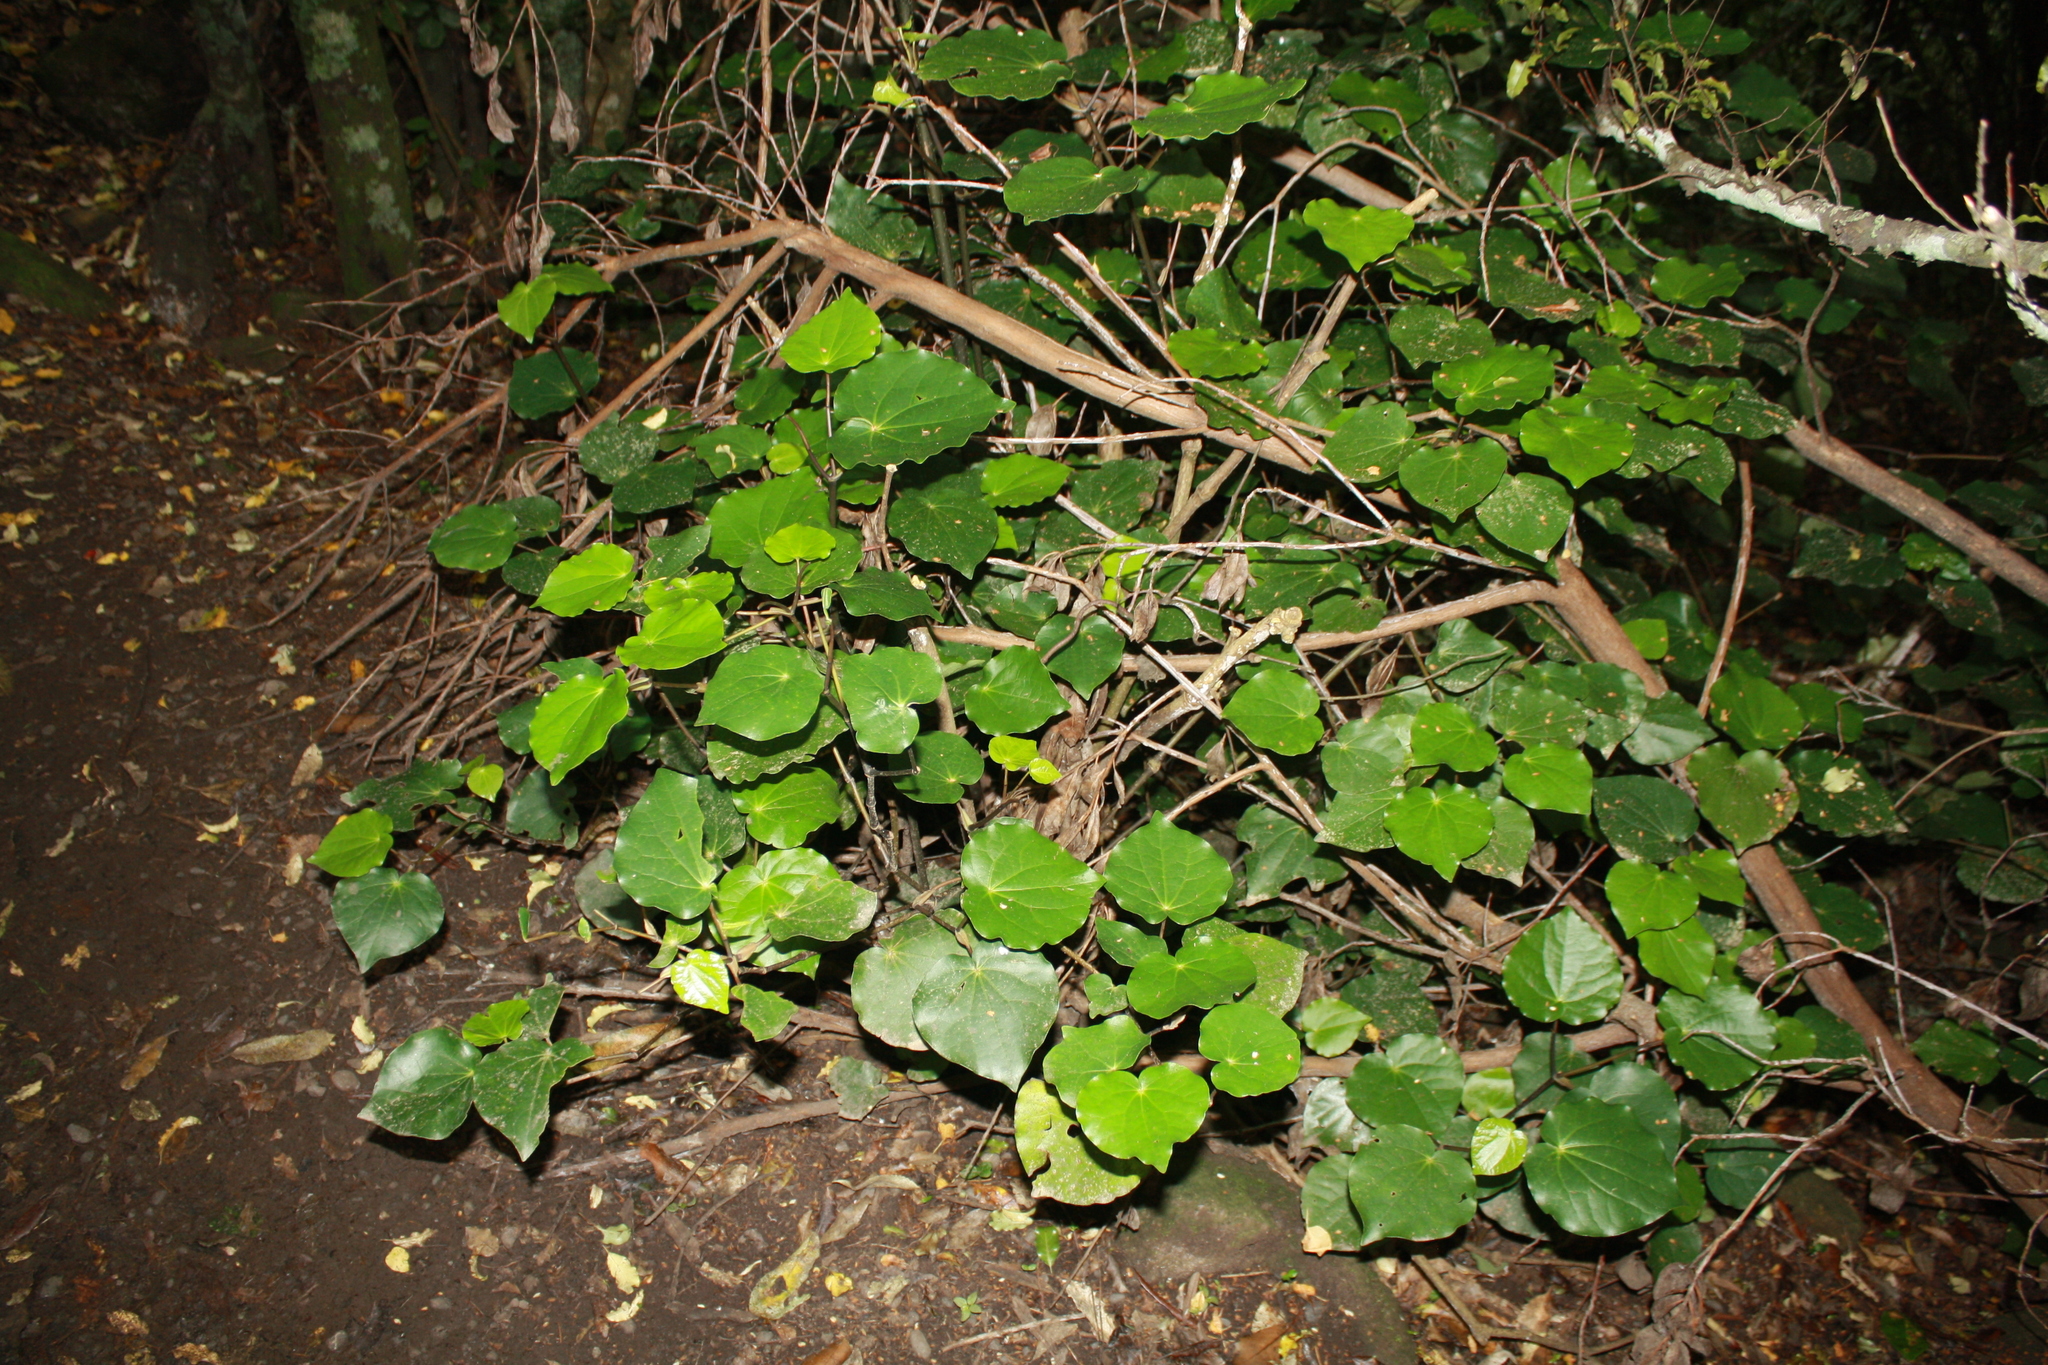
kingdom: Plantae
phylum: Tracheophyta
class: Magnoliopsida
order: Piperales
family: Piperaceae
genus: Macropiper
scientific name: Macropiper excelsum
